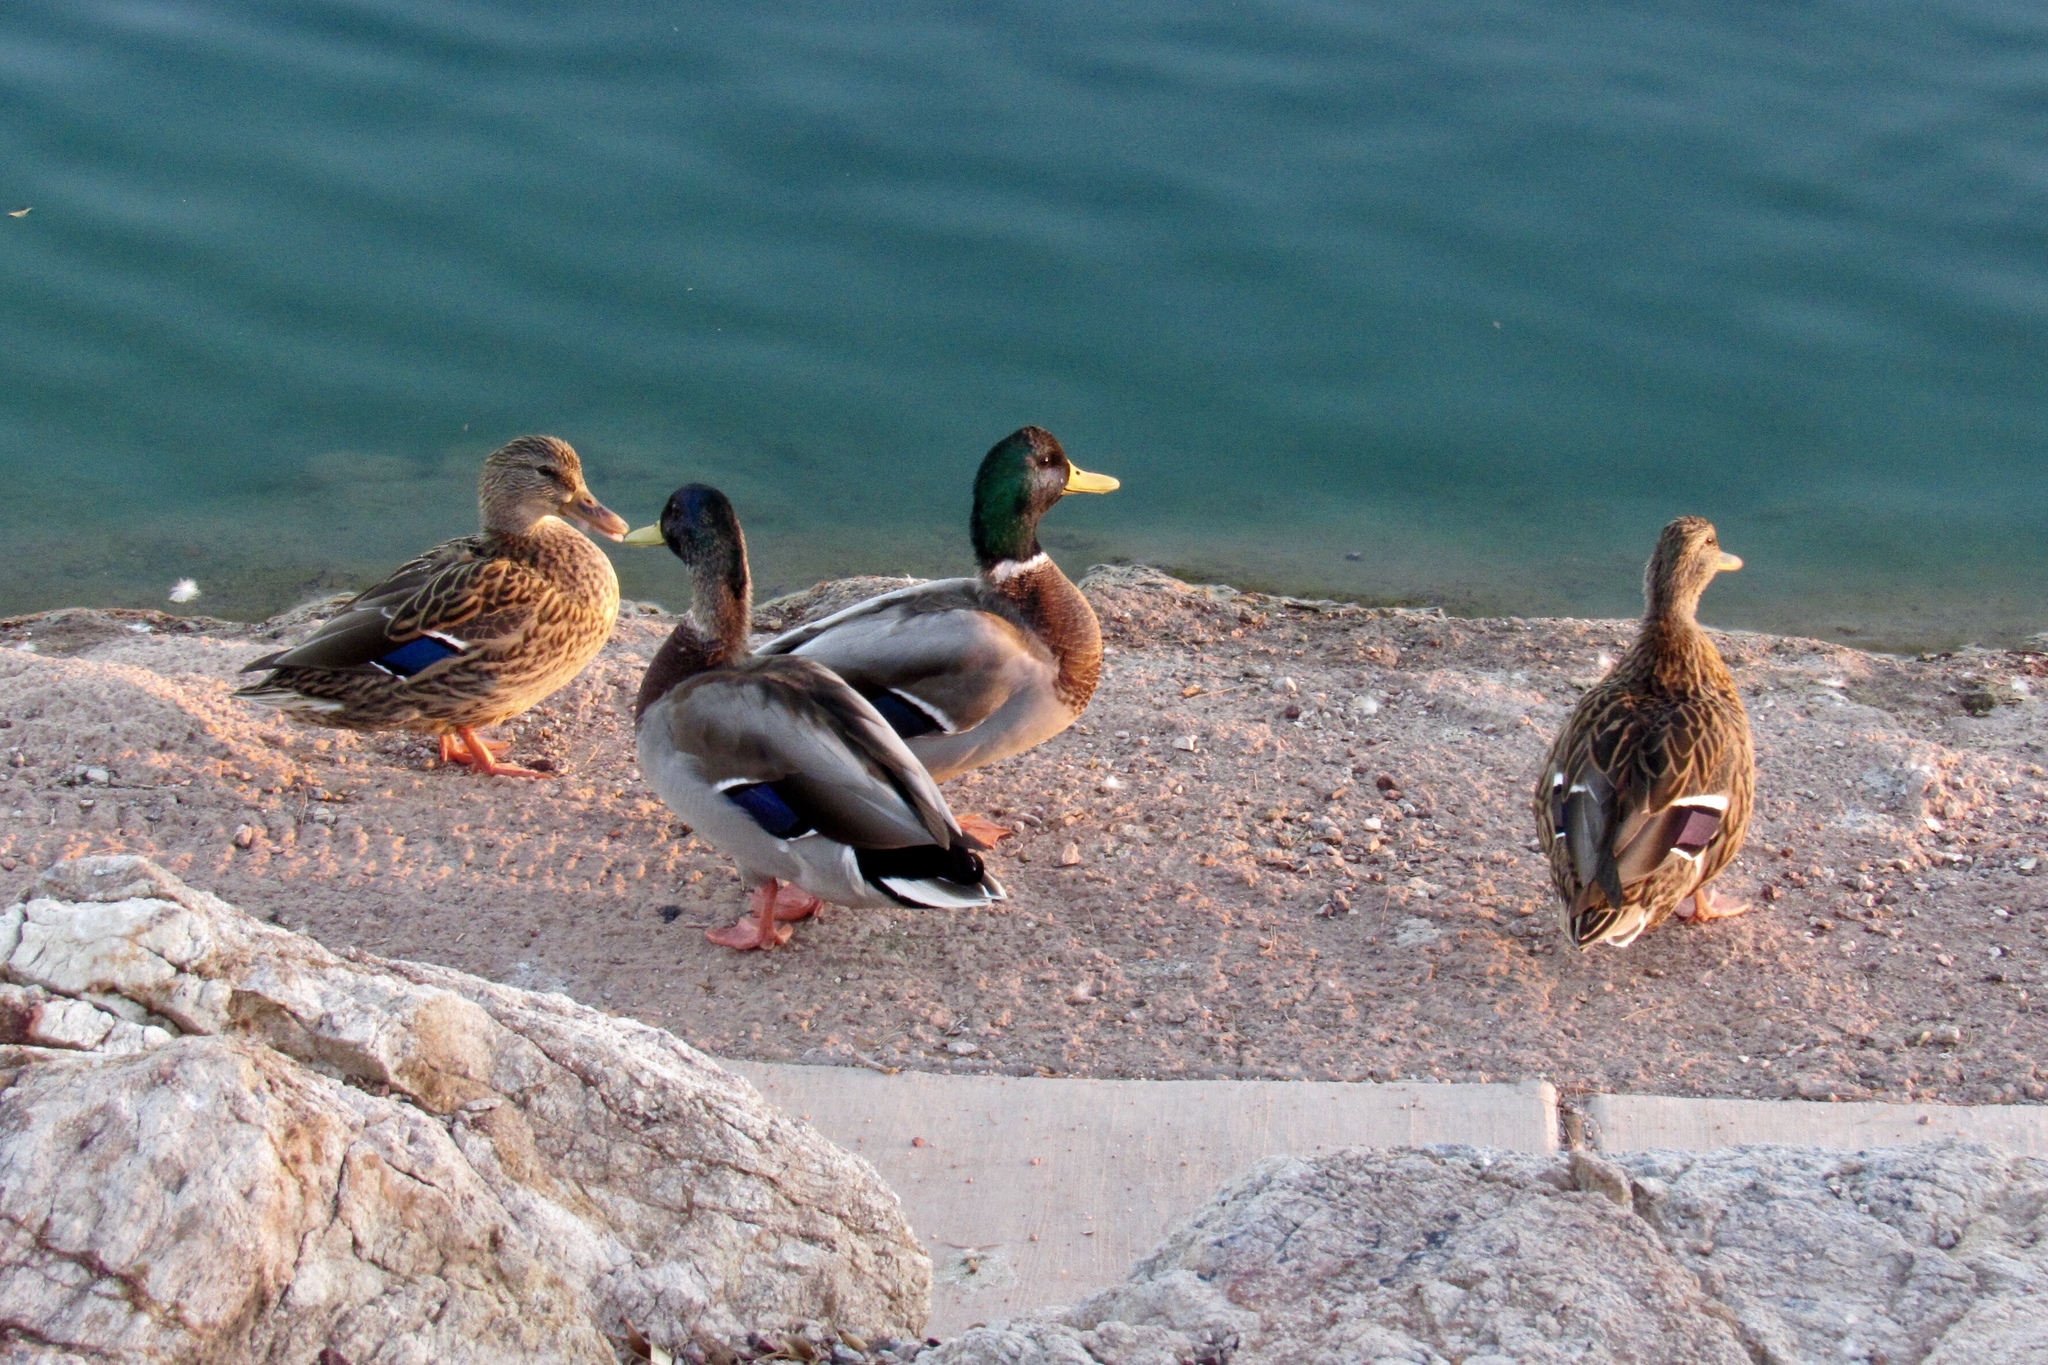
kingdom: Animalia
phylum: Chordata
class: Aves
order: Anseriformes
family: Anatidae
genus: Anas
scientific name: Anas platyrhynchos
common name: Mallard
